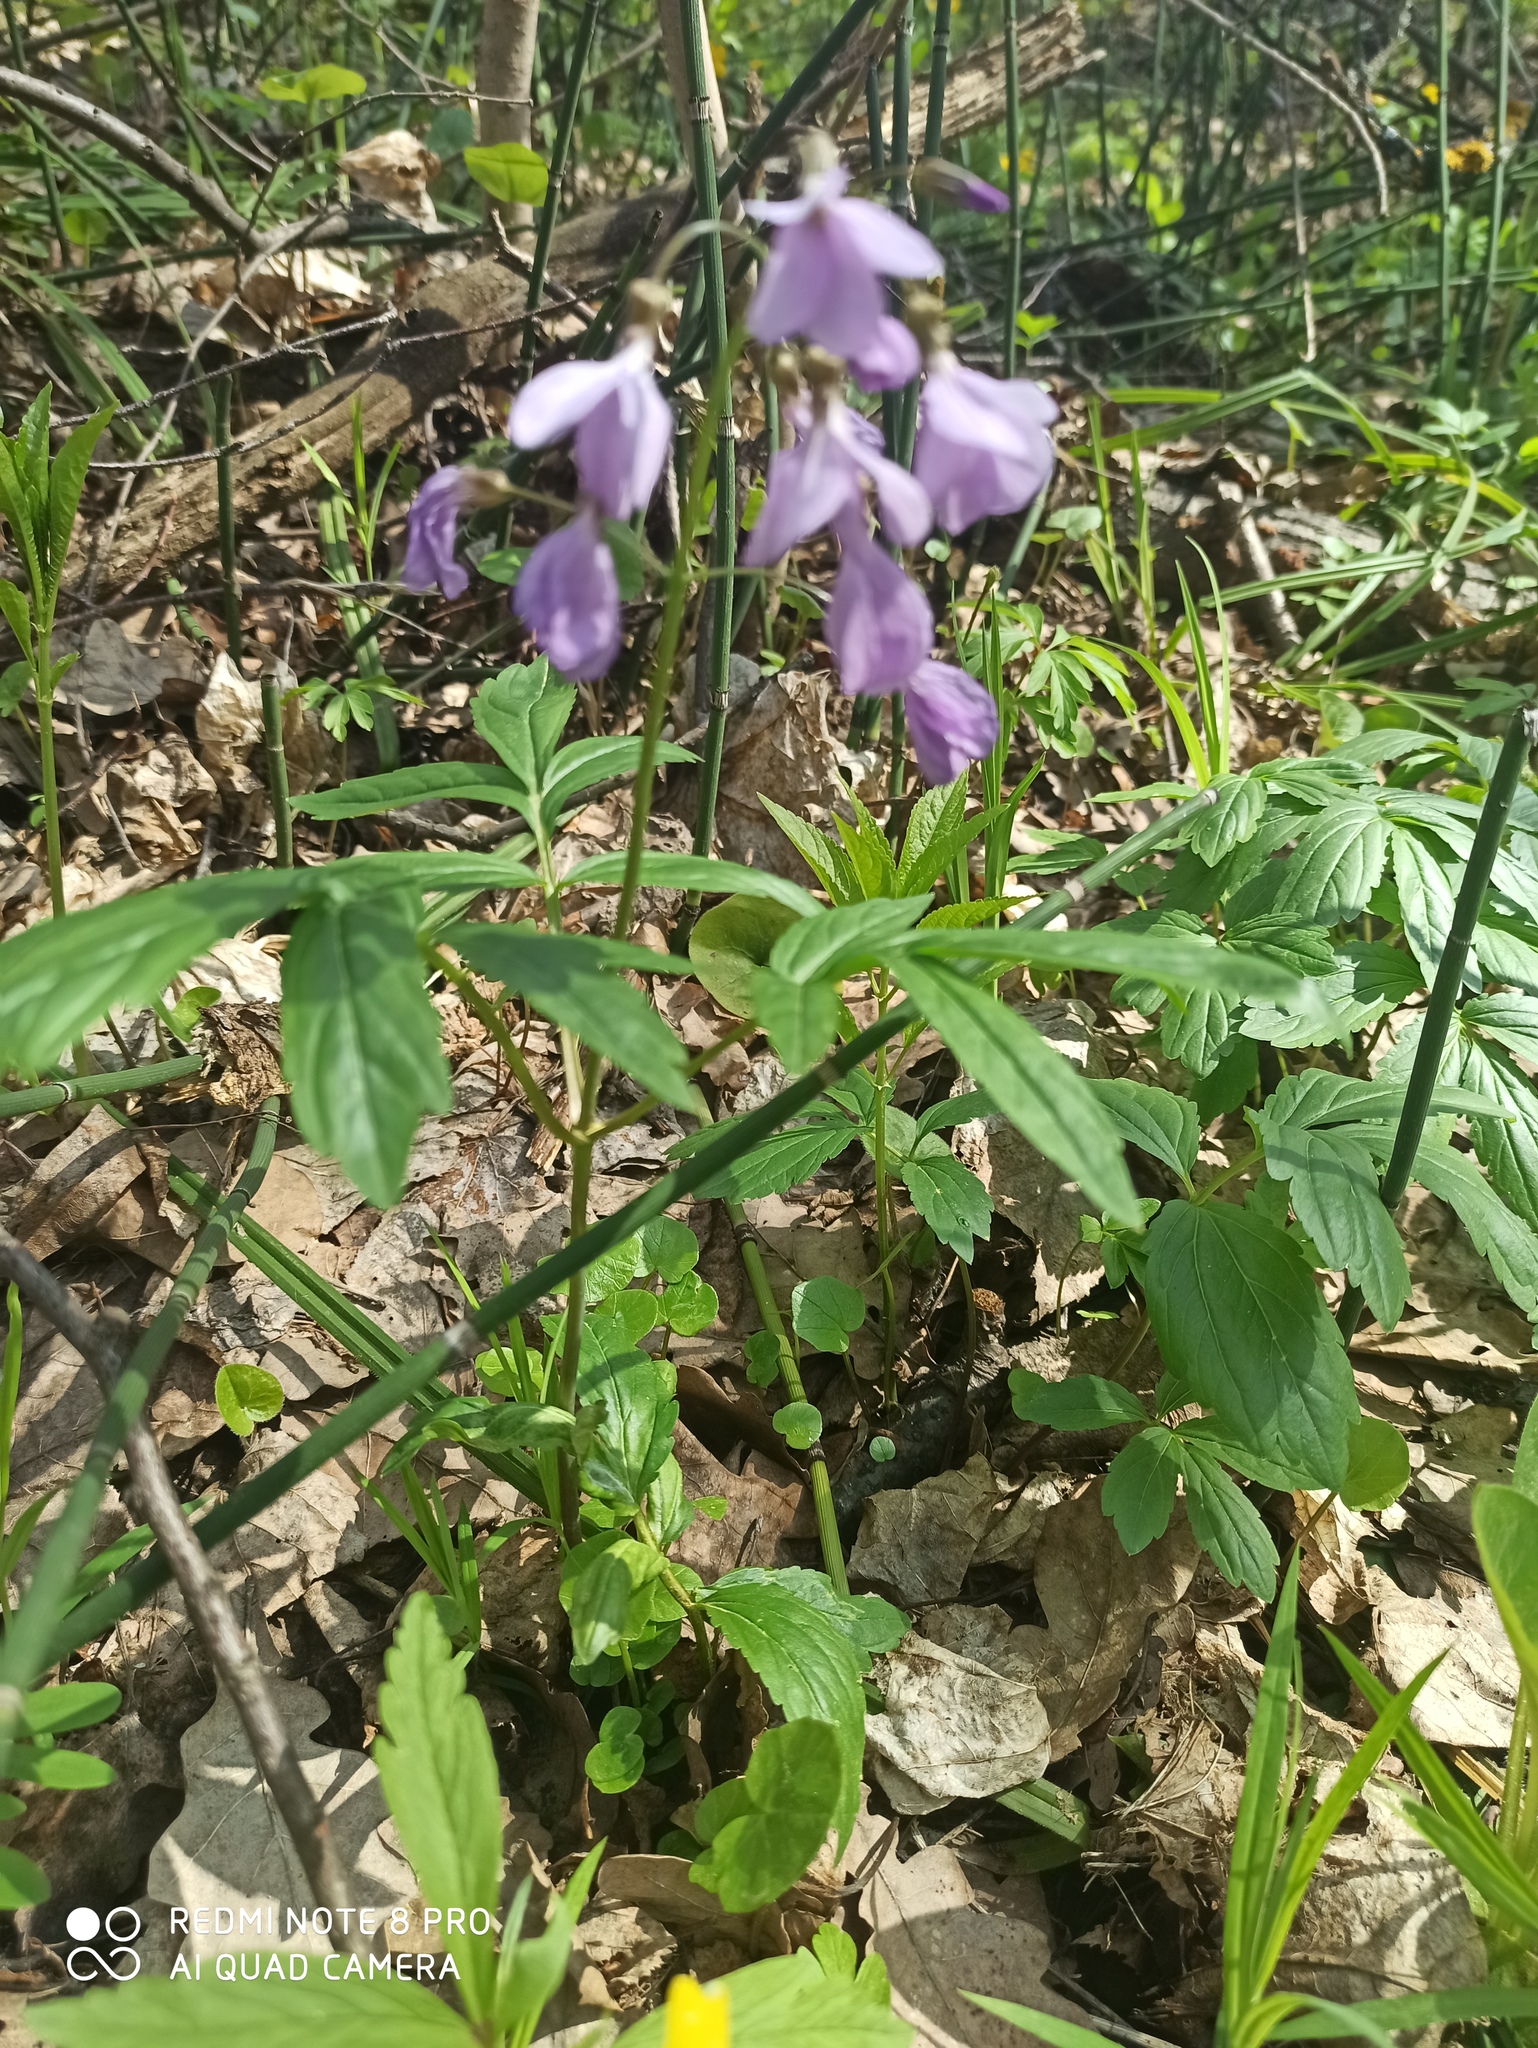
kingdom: Plantae
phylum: Tracheophyta
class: Magnoliopsida
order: Brassicales
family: Brassicaceae
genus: Cardamine
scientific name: Cardamine quinquefolia
